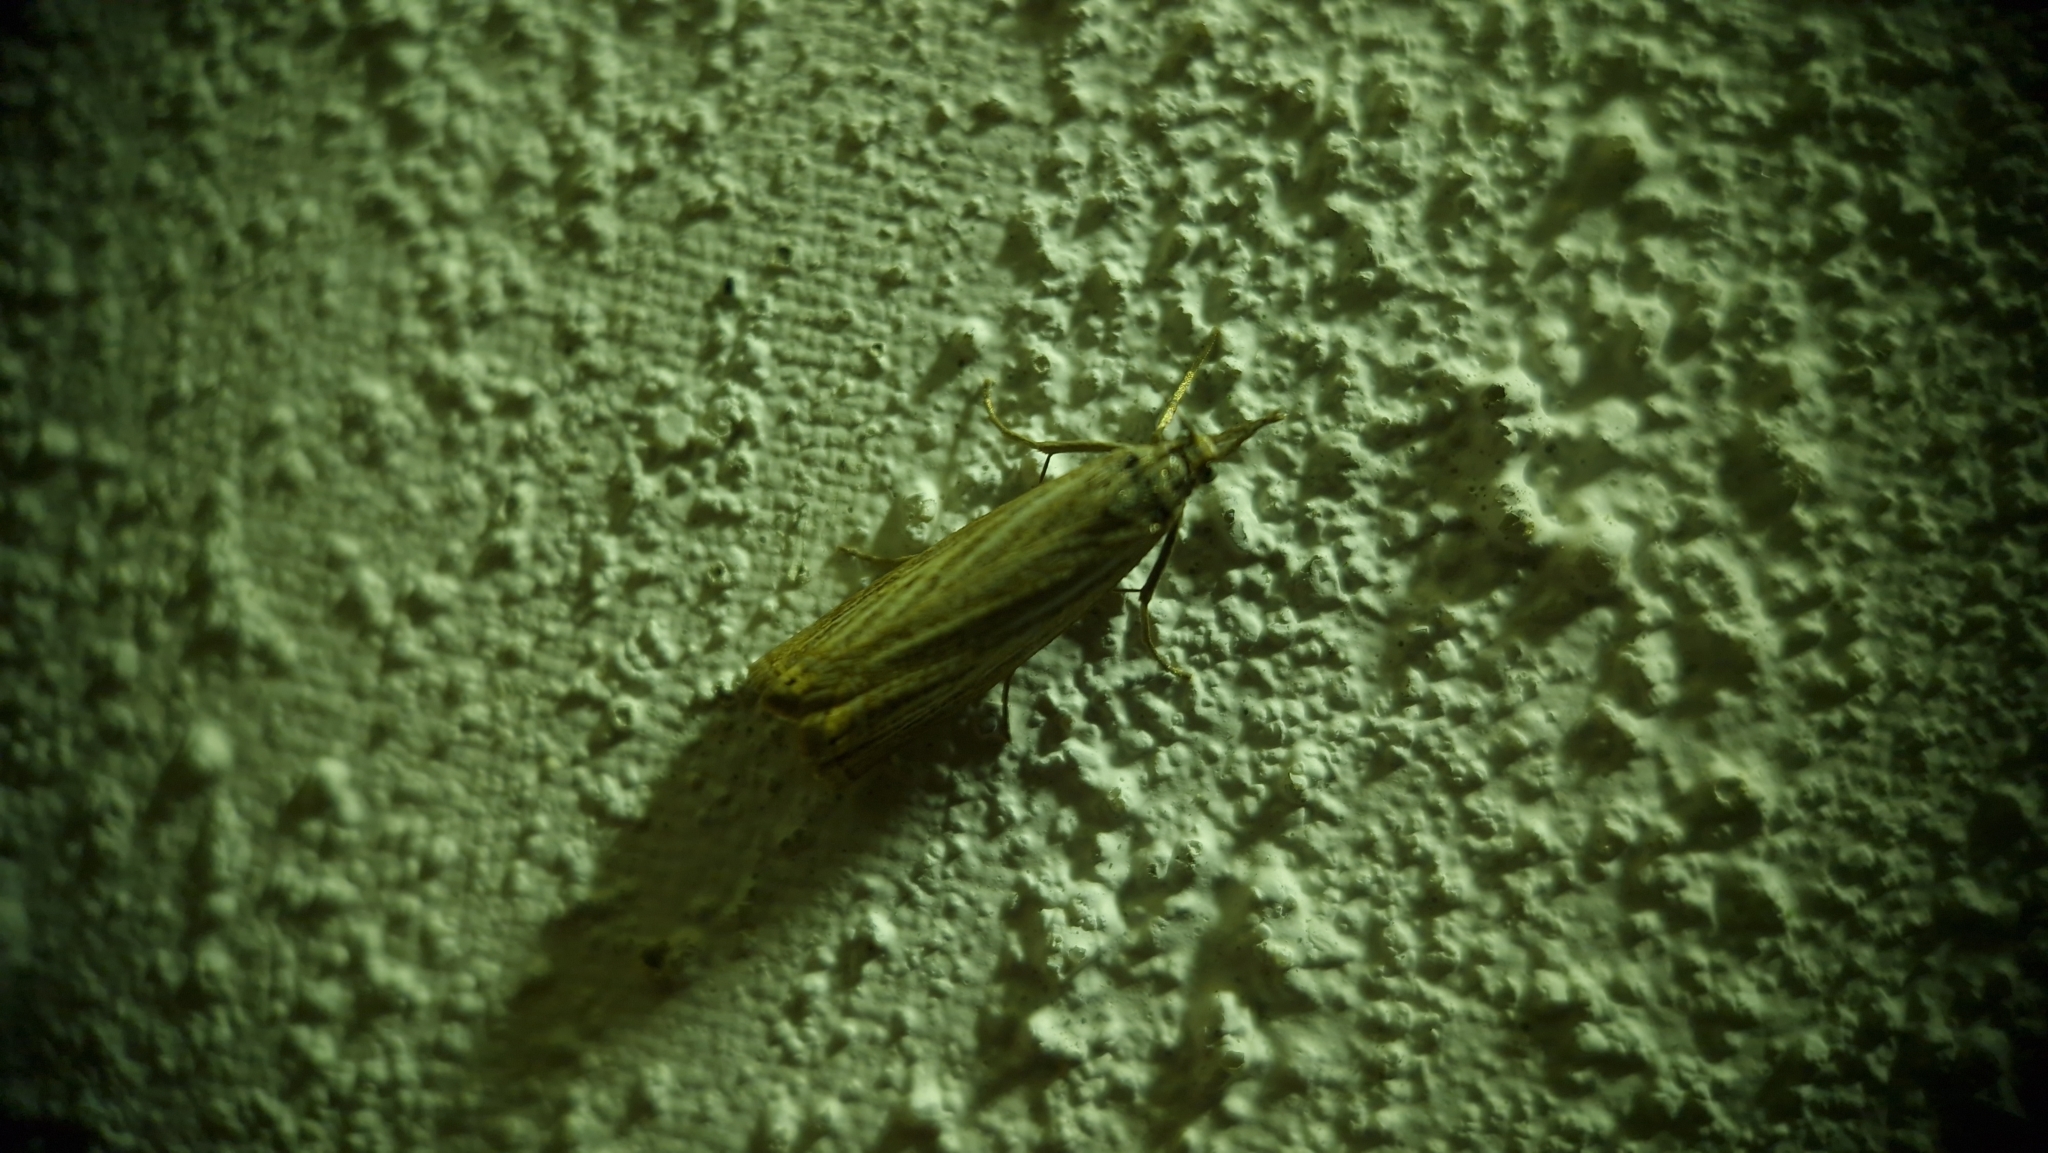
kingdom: Animalia
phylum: Arthropoda
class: Insecta
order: Lepidoptera
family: Crambidae
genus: Chrysoteuchia
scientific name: Chrysoteuchia culmella
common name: Garden grass-veneer
